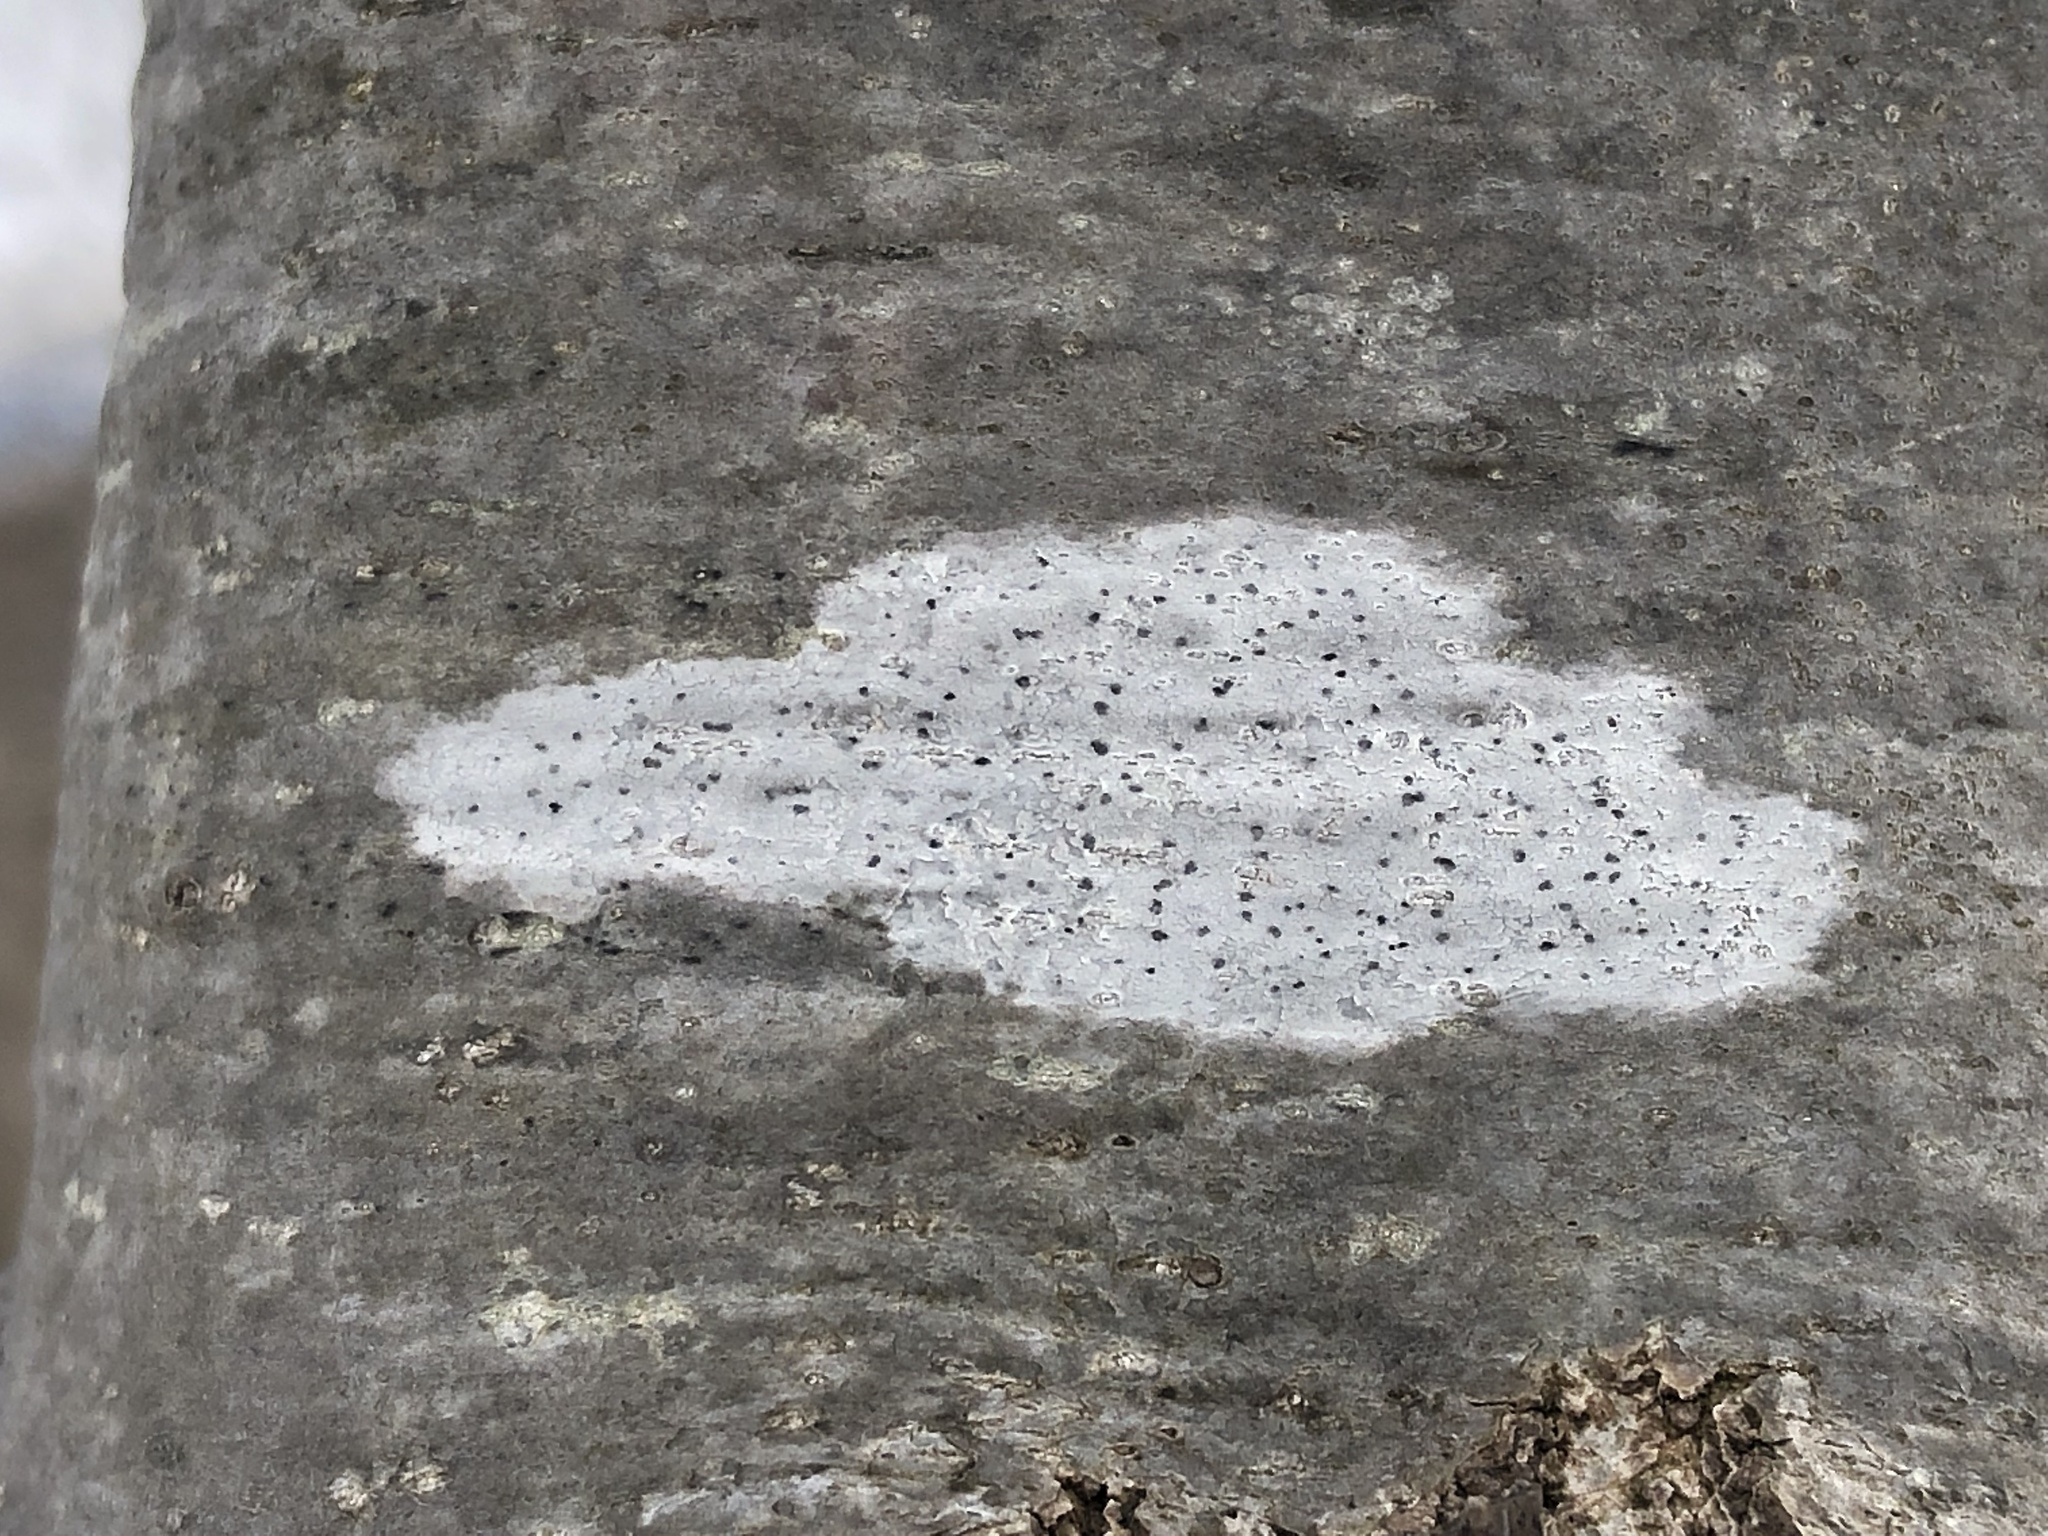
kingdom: Fungi
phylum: Ascomycota
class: Lecanoromycetes
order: Lecanorales
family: Lecanoraceae
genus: Lecidella
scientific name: Lecidella elaeochroma
